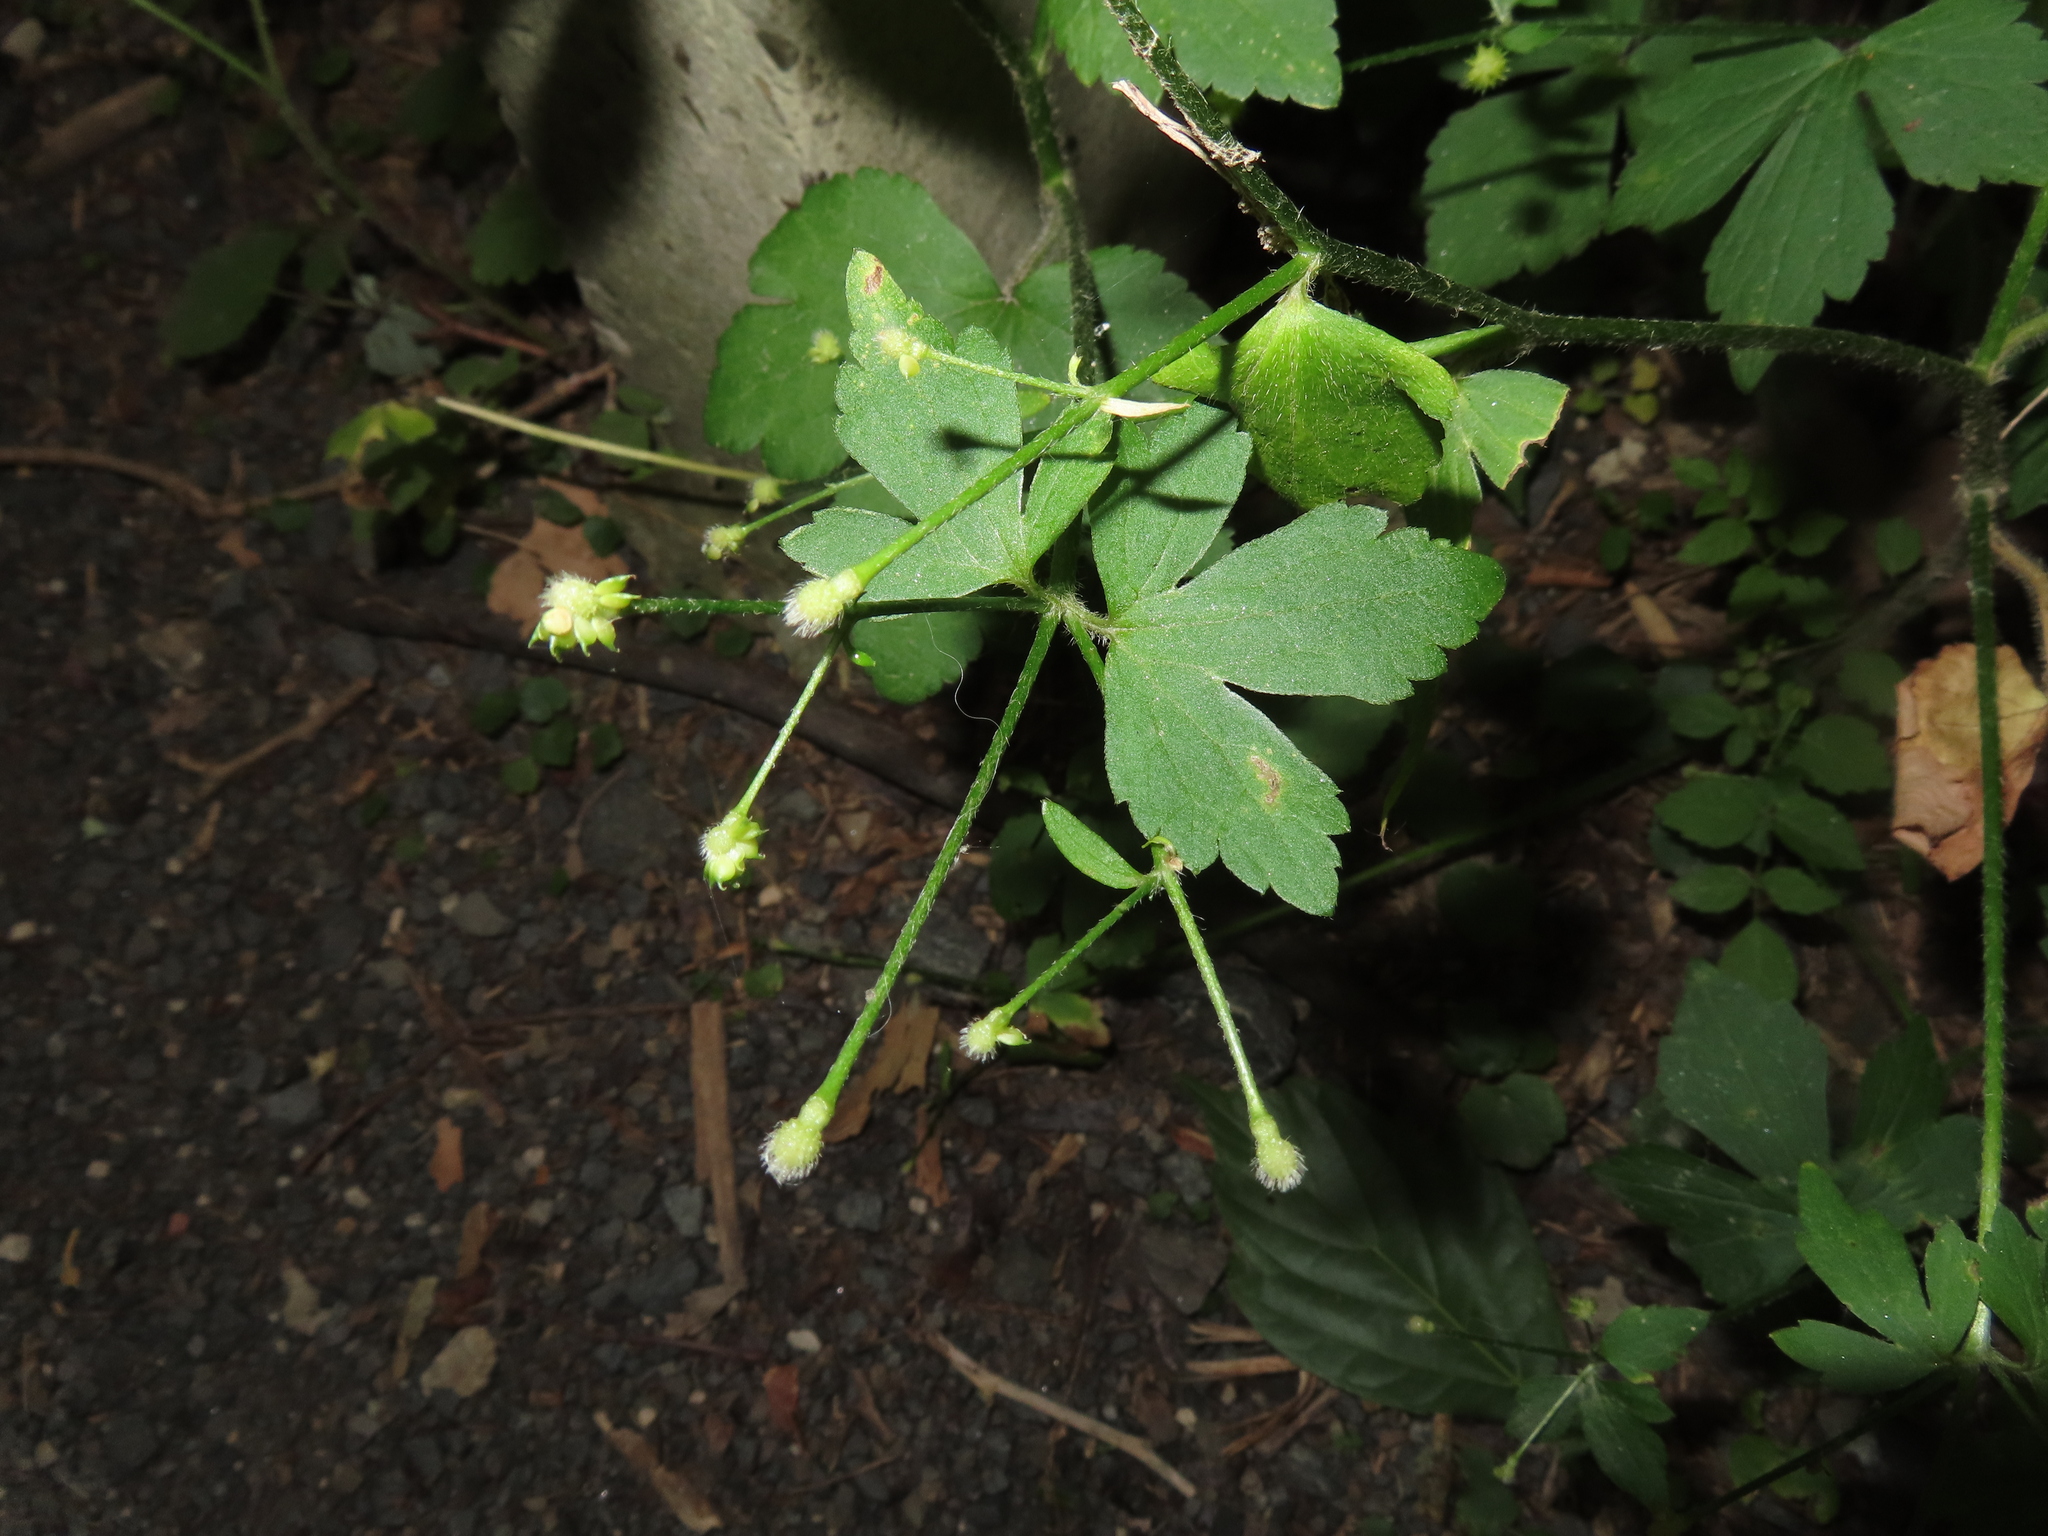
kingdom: Plantae
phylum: Tracheophyta
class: Magnoliopsida
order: Ranunculales
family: Ranunculaceae
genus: Ranunculus
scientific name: Ranunculus recurvatus
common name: Blisterwort
